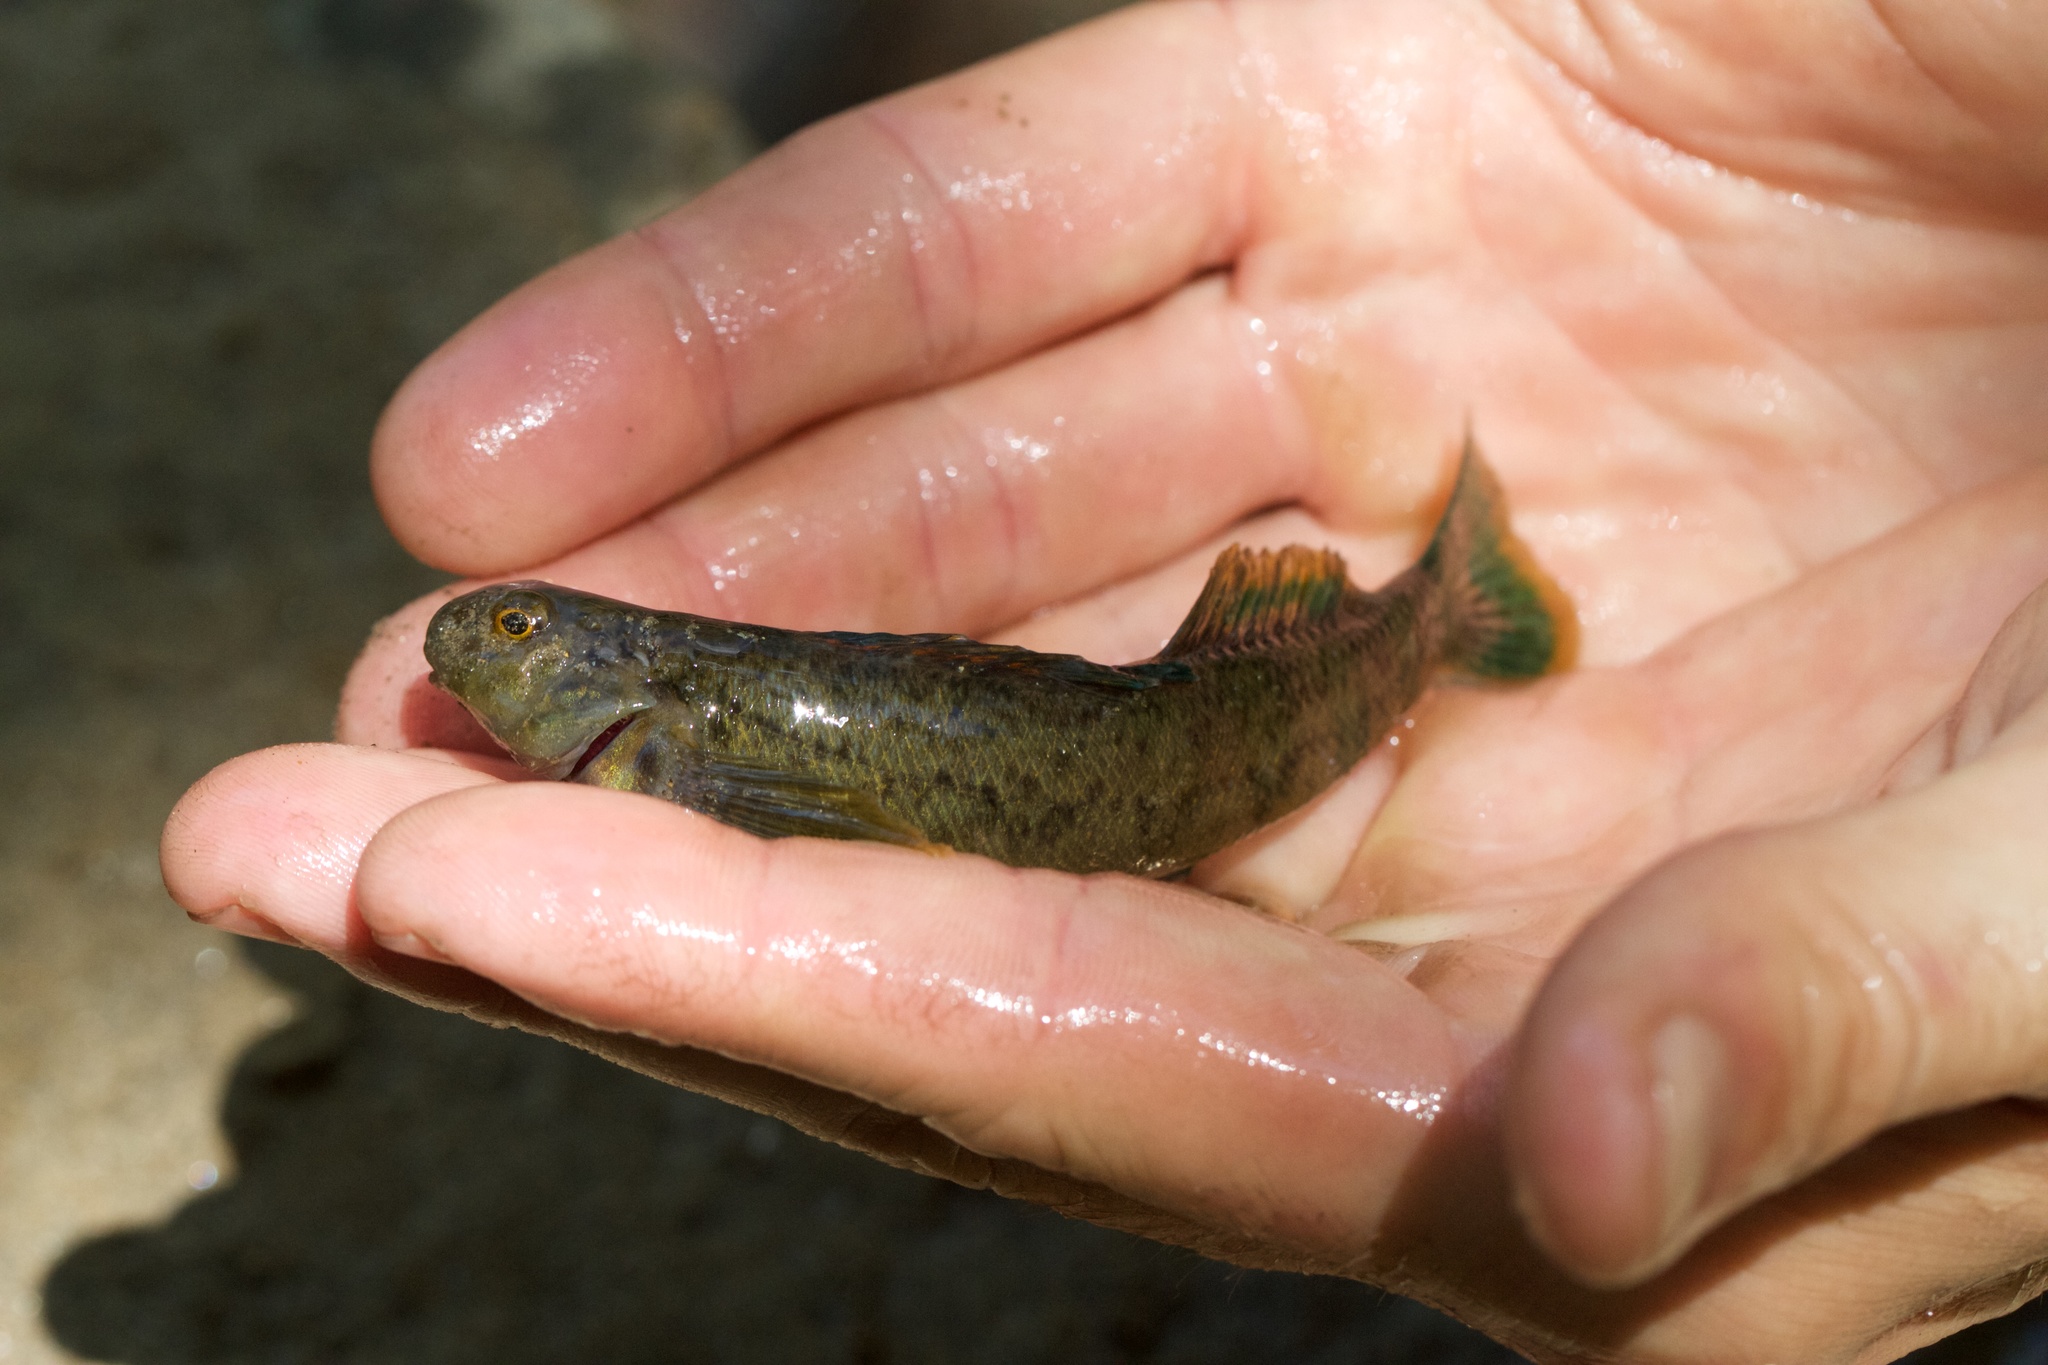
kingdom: Animalia
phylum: Chordata
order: Perciformes
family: Percidae
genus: Etheostoma
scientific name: Etheostoma blennioides
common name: Greenside darter
